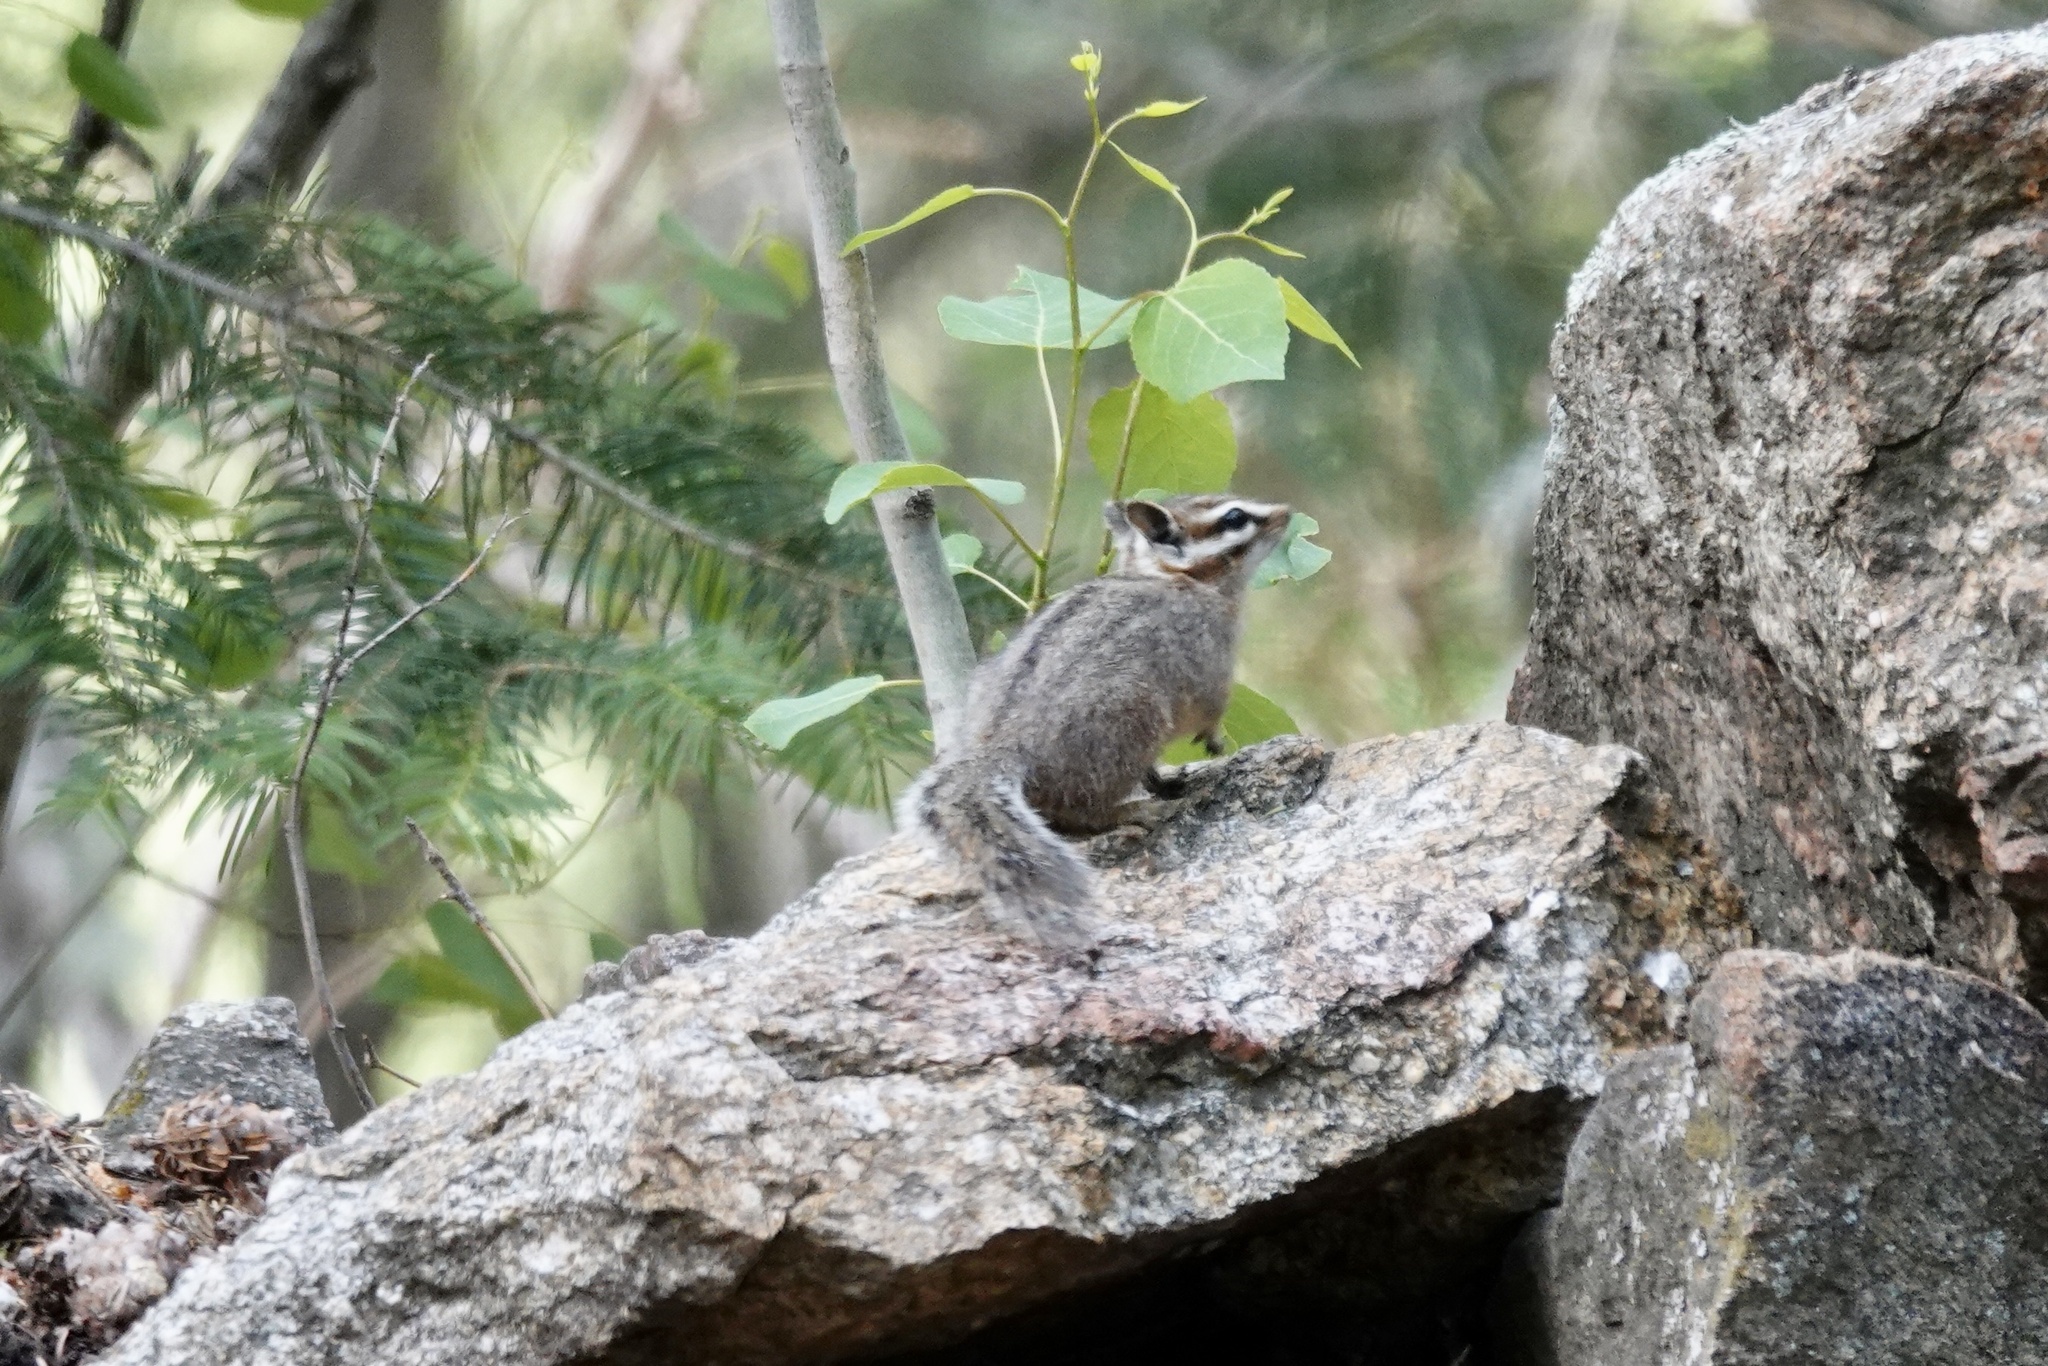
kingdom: Animalia
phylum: Chordata
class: Mammalia
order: Rodentia
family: Sciuridae
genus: Tamias
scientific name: Tamias dorsalis
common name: Cliff chipmunk
